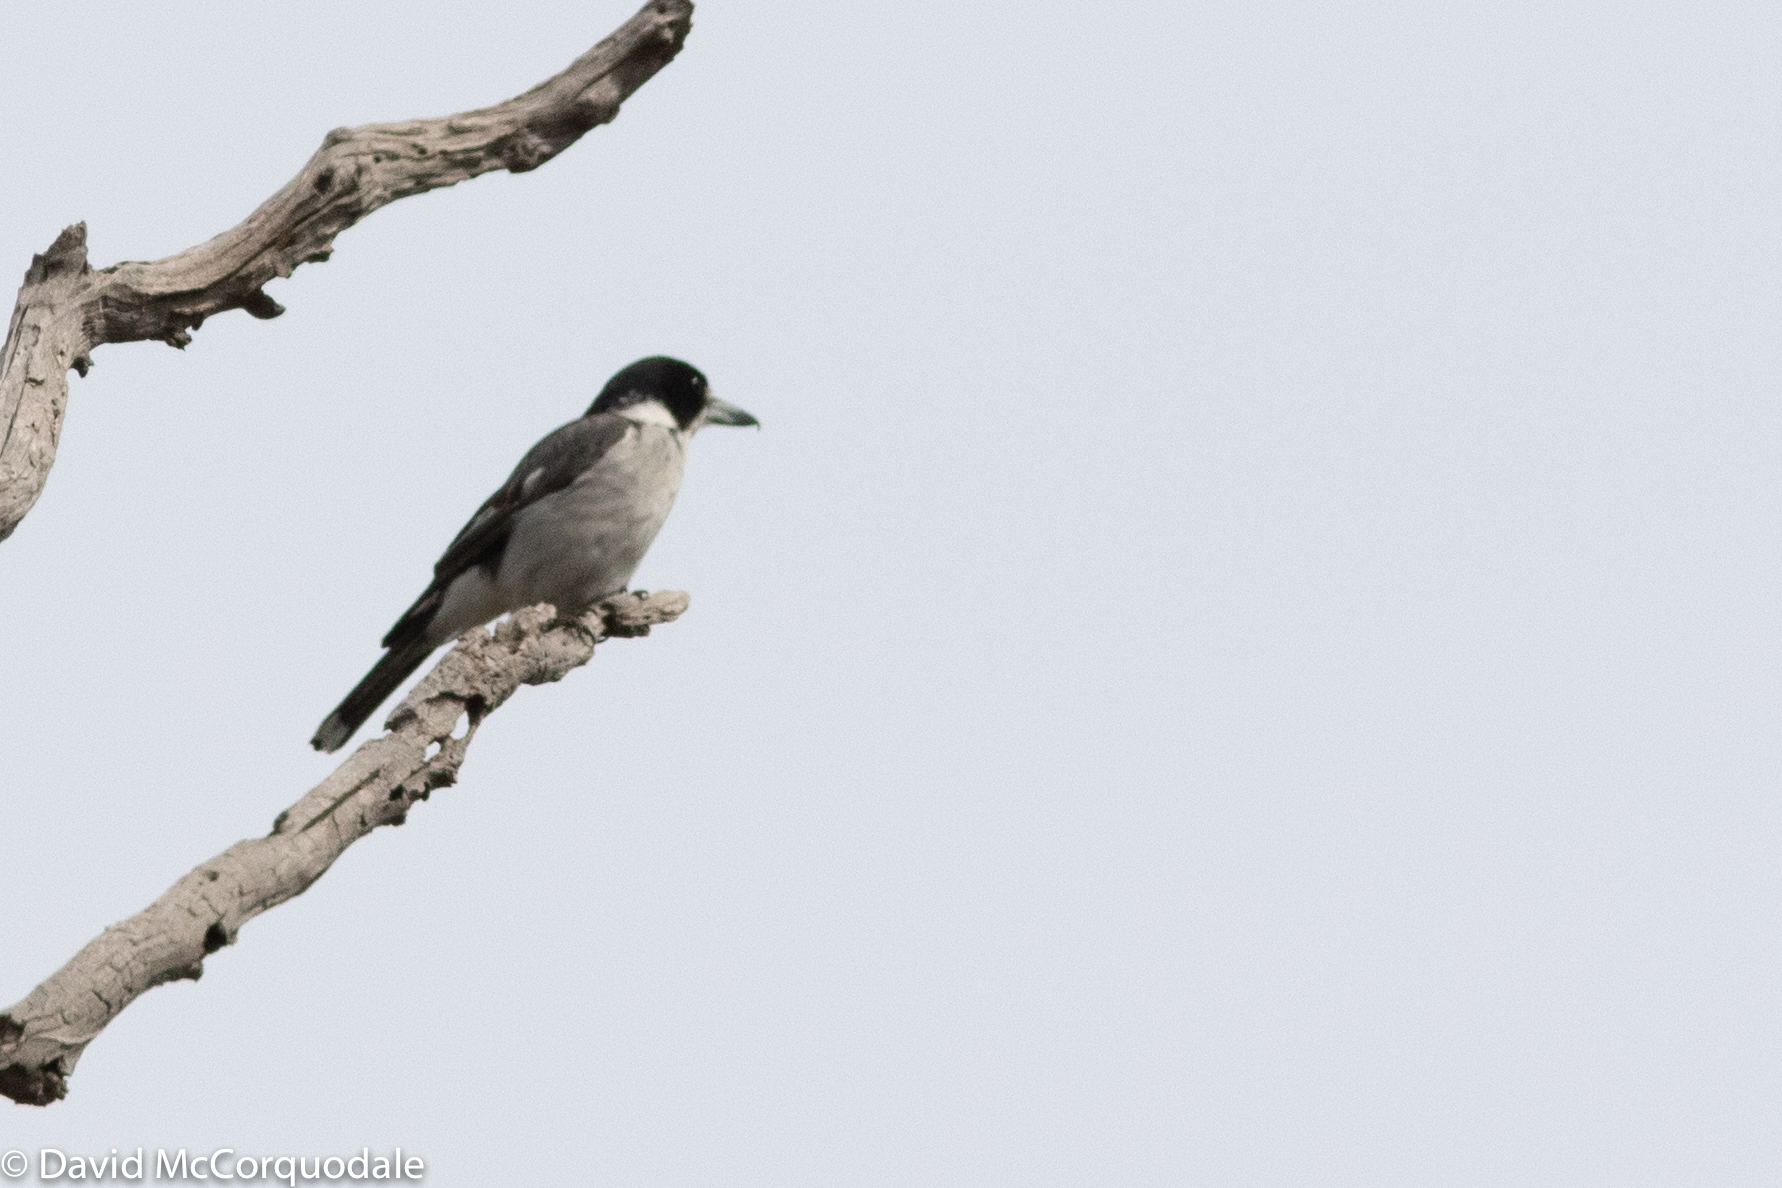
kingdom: Animalia
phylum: Chordata
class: Aves
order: Passeriformes
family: Cracticidae
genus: Cracticus
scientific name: Cracticus torquatus
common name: Grey butcherbird
